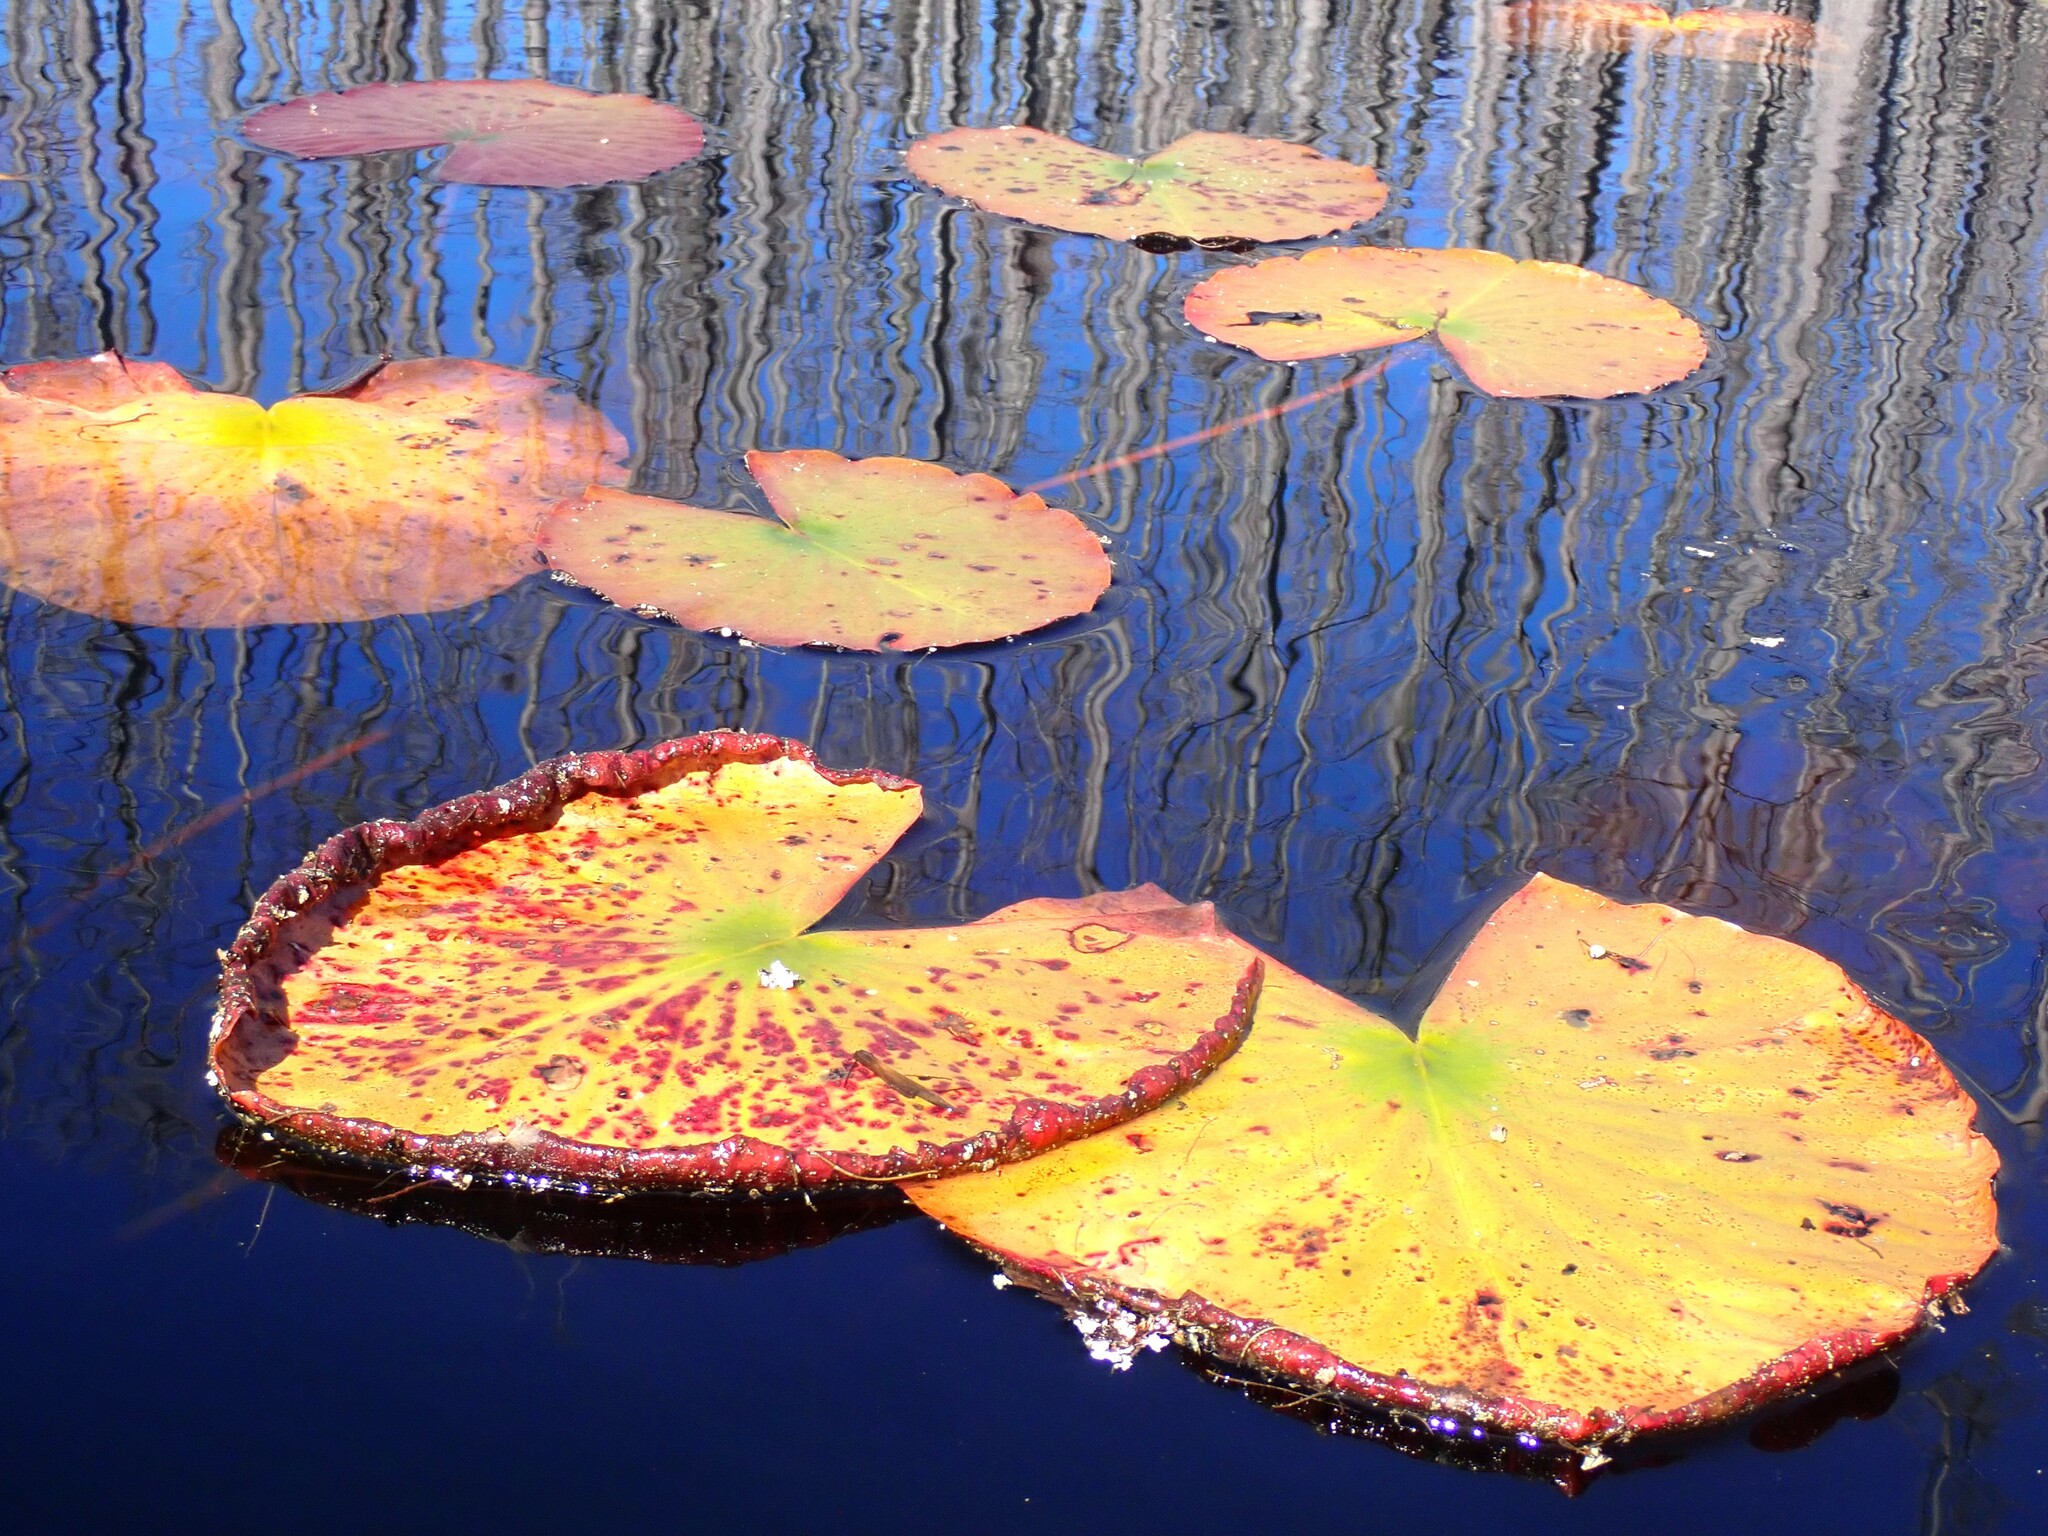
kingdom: Plantae
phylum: Tracheophyta
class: Magnoliopsida
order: Nymphaeales
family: Nymphaeaceae
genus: Nymphaea
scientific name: Nymphaea odorata
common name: Fragrant water-lily
